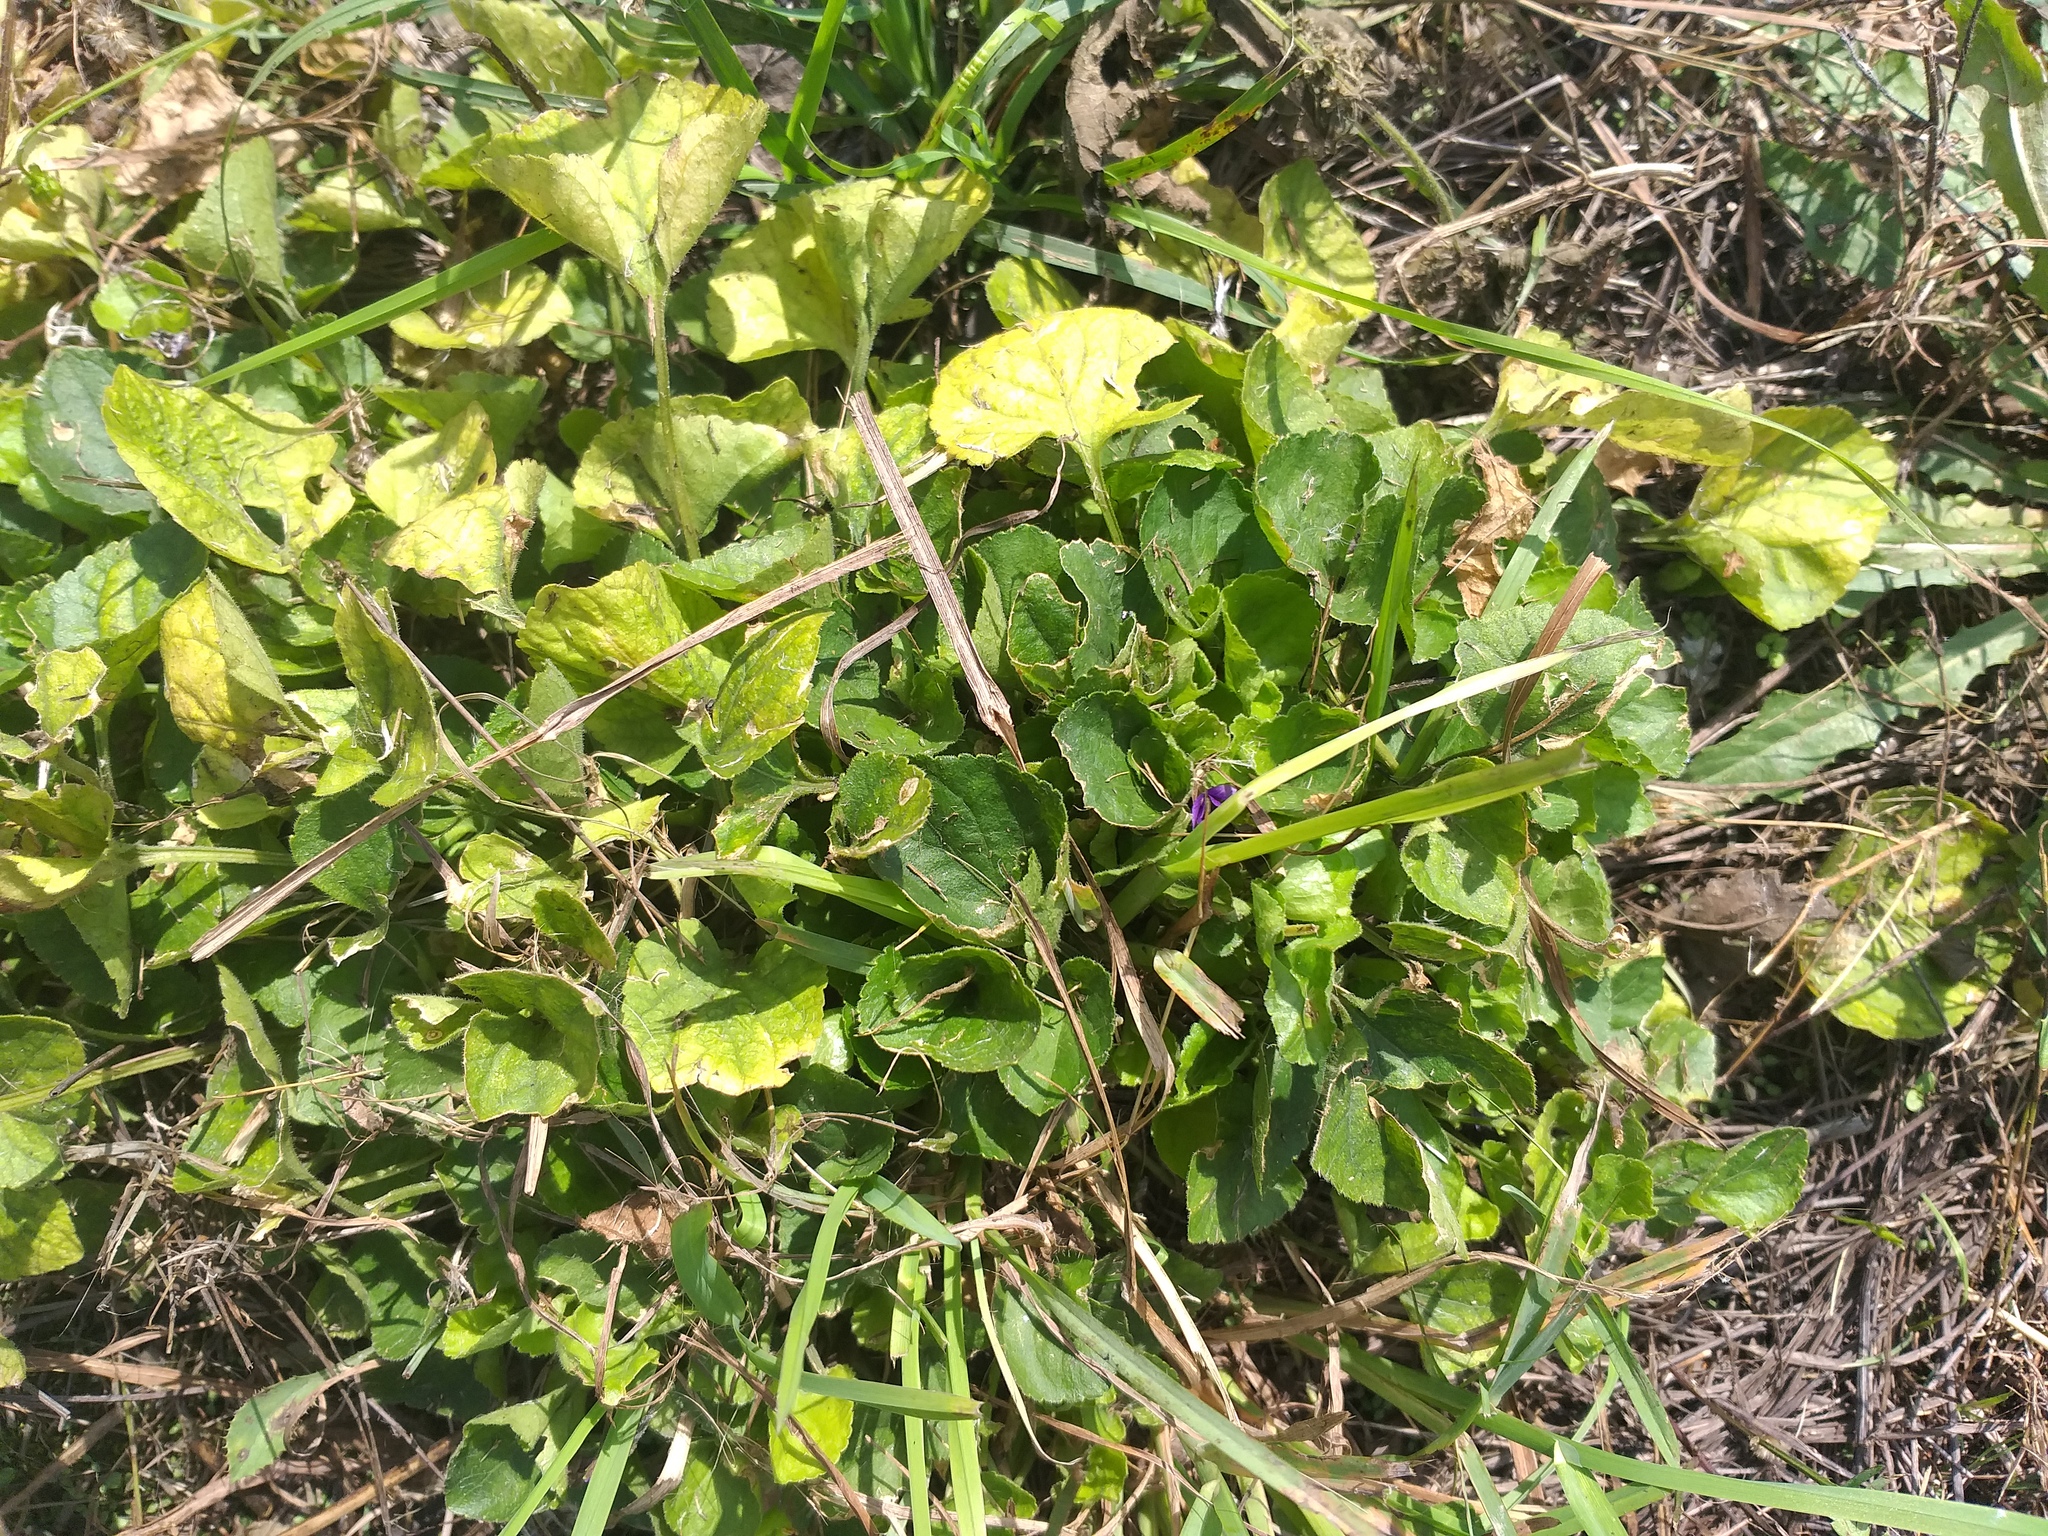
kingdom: Plantae
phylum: Tracheophyta
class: Magnoliopsida
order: Malpighiales
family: Violaceae
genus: Viola
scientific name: Viola odorata
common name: Sweet violet
